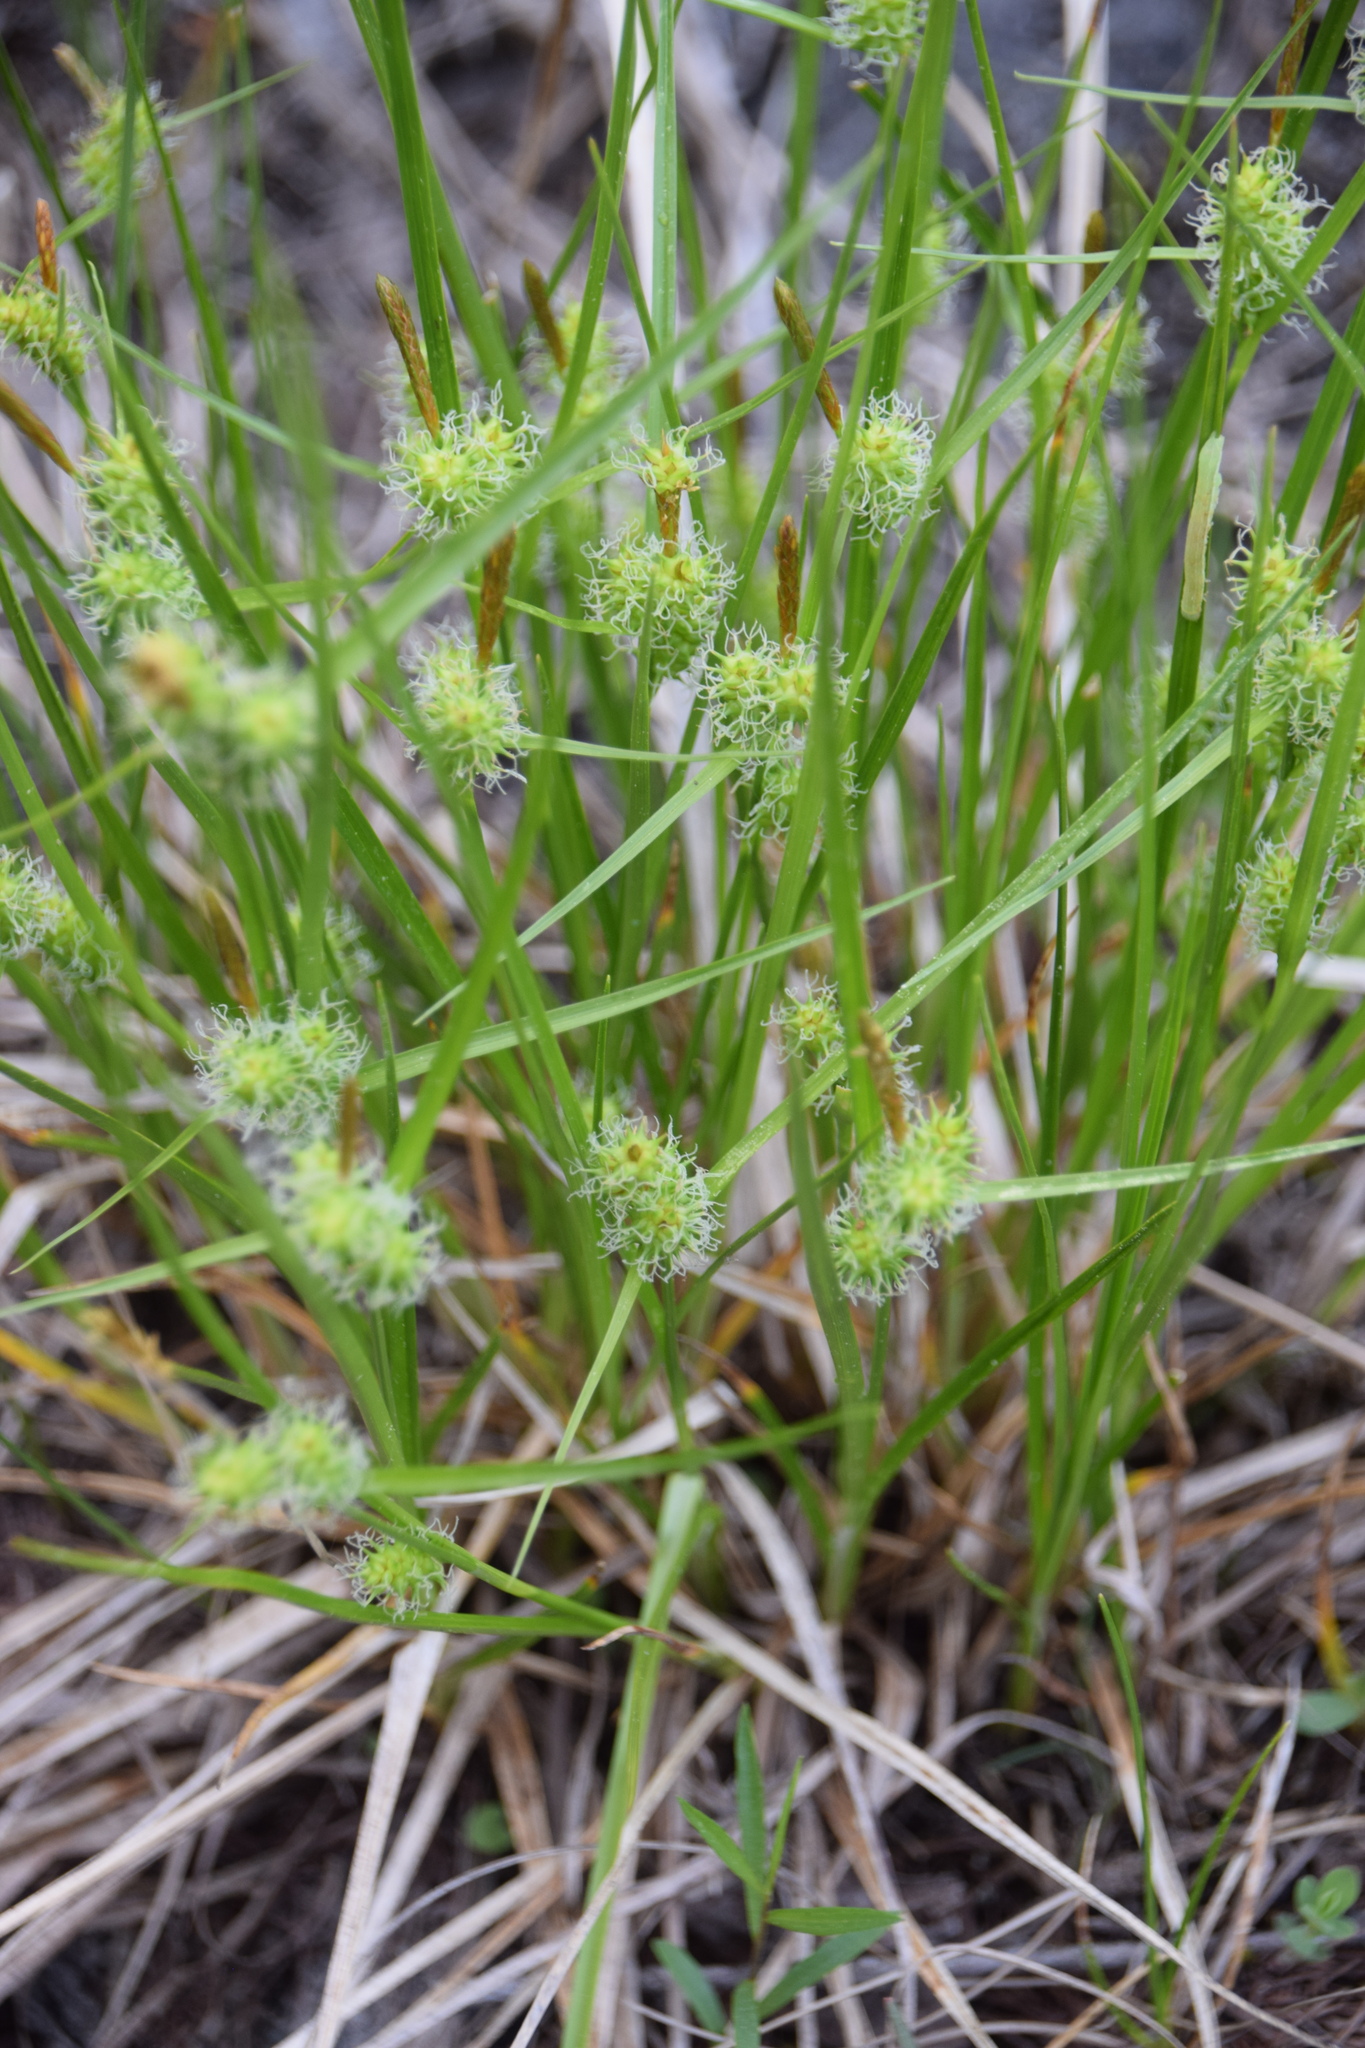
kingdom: Plantae
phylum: Tracheophyta
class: Liliopsida
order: Poales
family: Cyperaceae
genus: Carex
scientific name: Carex
